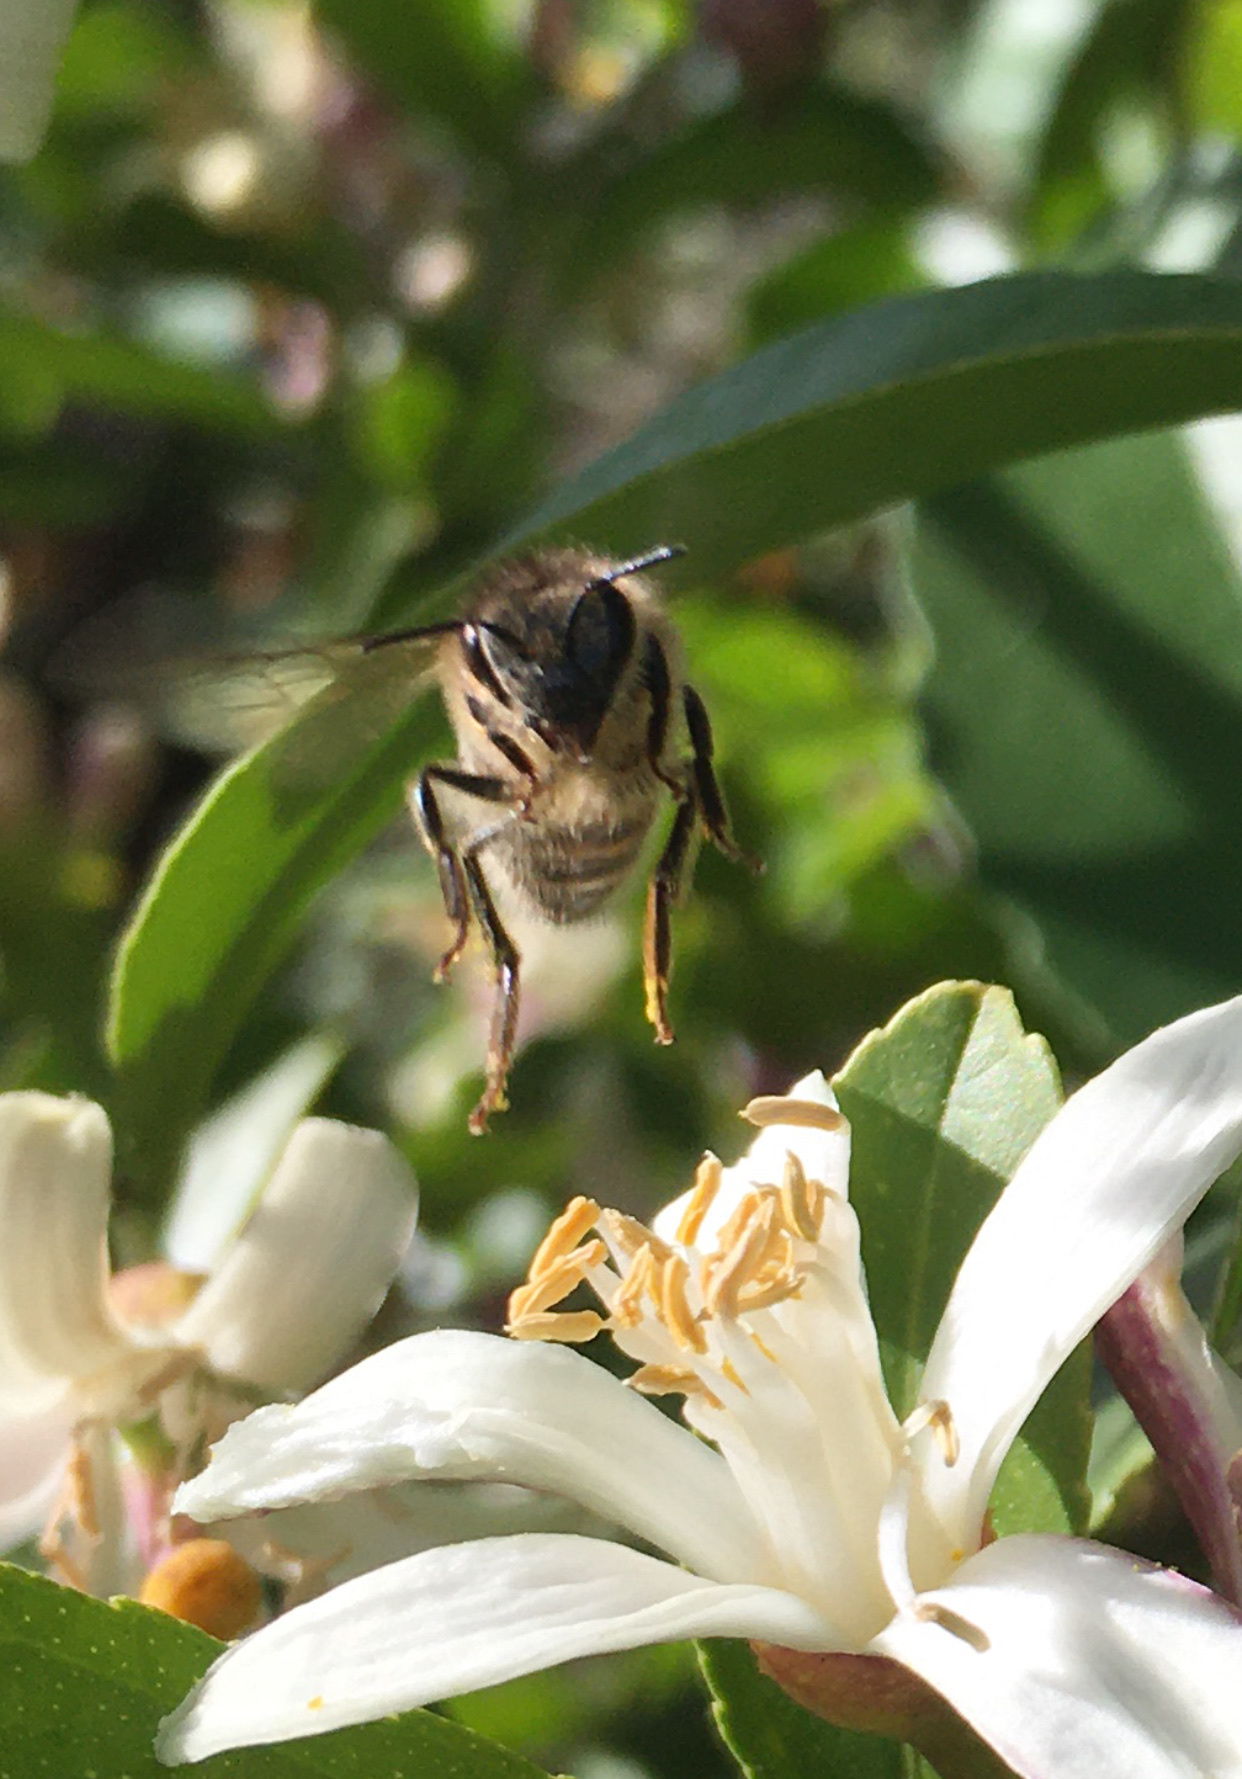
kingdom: Animalia
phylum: Arthropoda
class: Insecta
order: Hymenoptera
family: Apidae
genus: Apis
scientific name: Apis mellifera
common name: Honey bee
